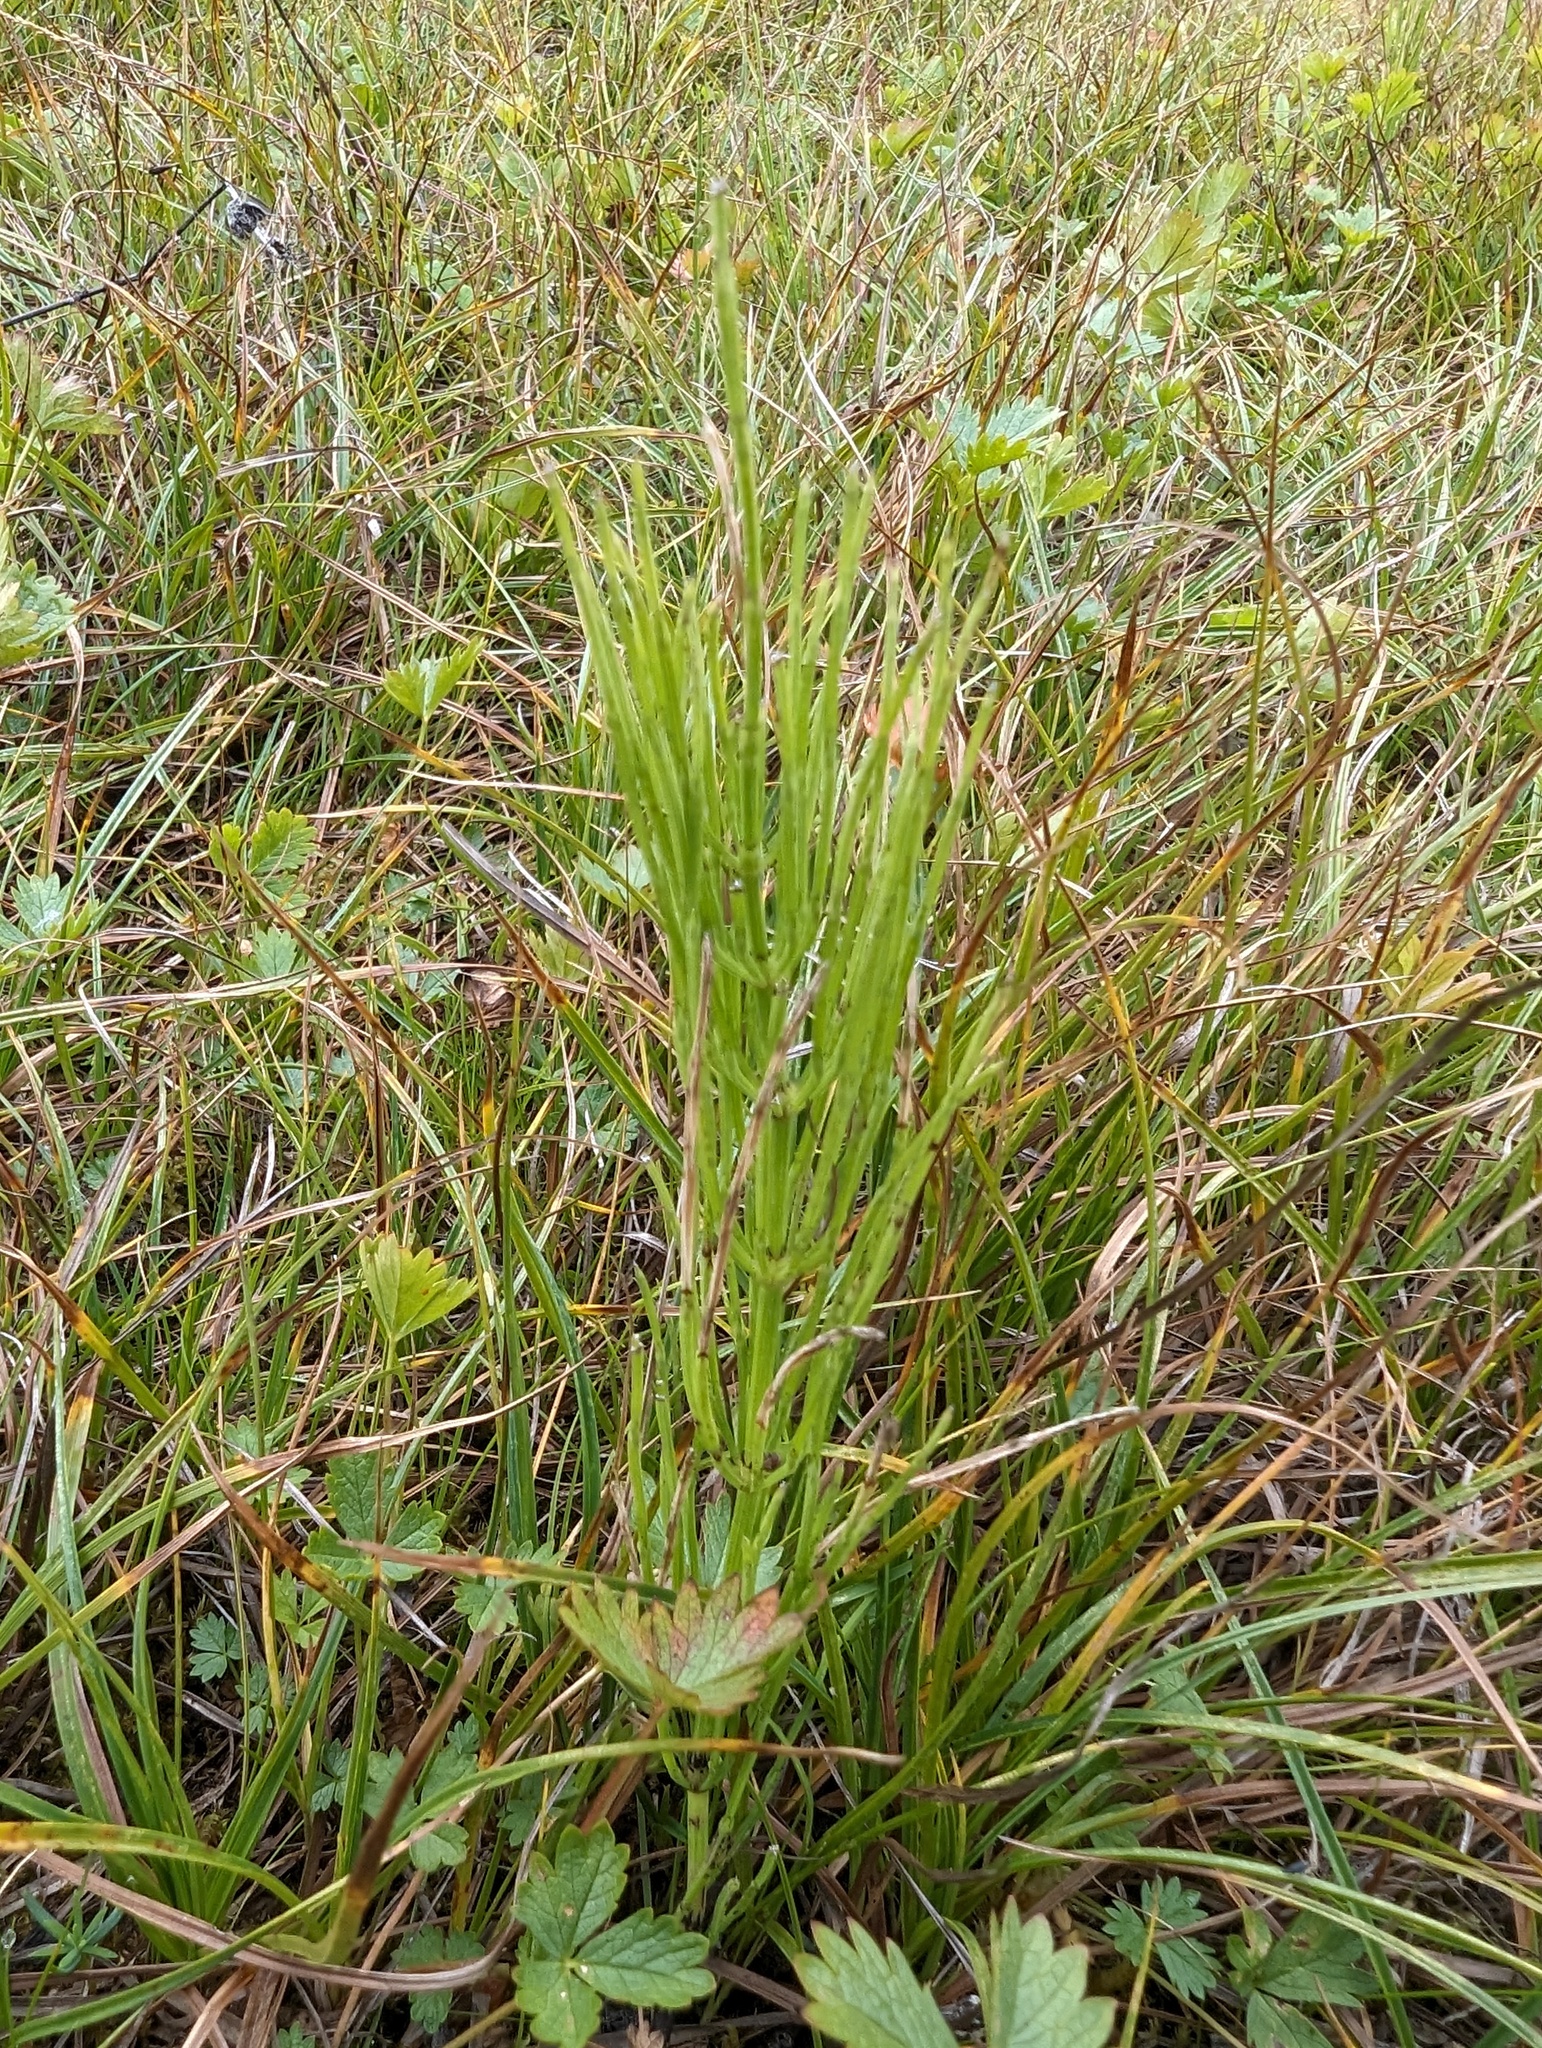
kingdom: Plantae
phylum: Tracheophyta
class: Polypodiopsida
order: Equisetales
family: Equisetaceae
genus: Equisetum
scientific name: Equisetum arvense
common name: Field horsetail
